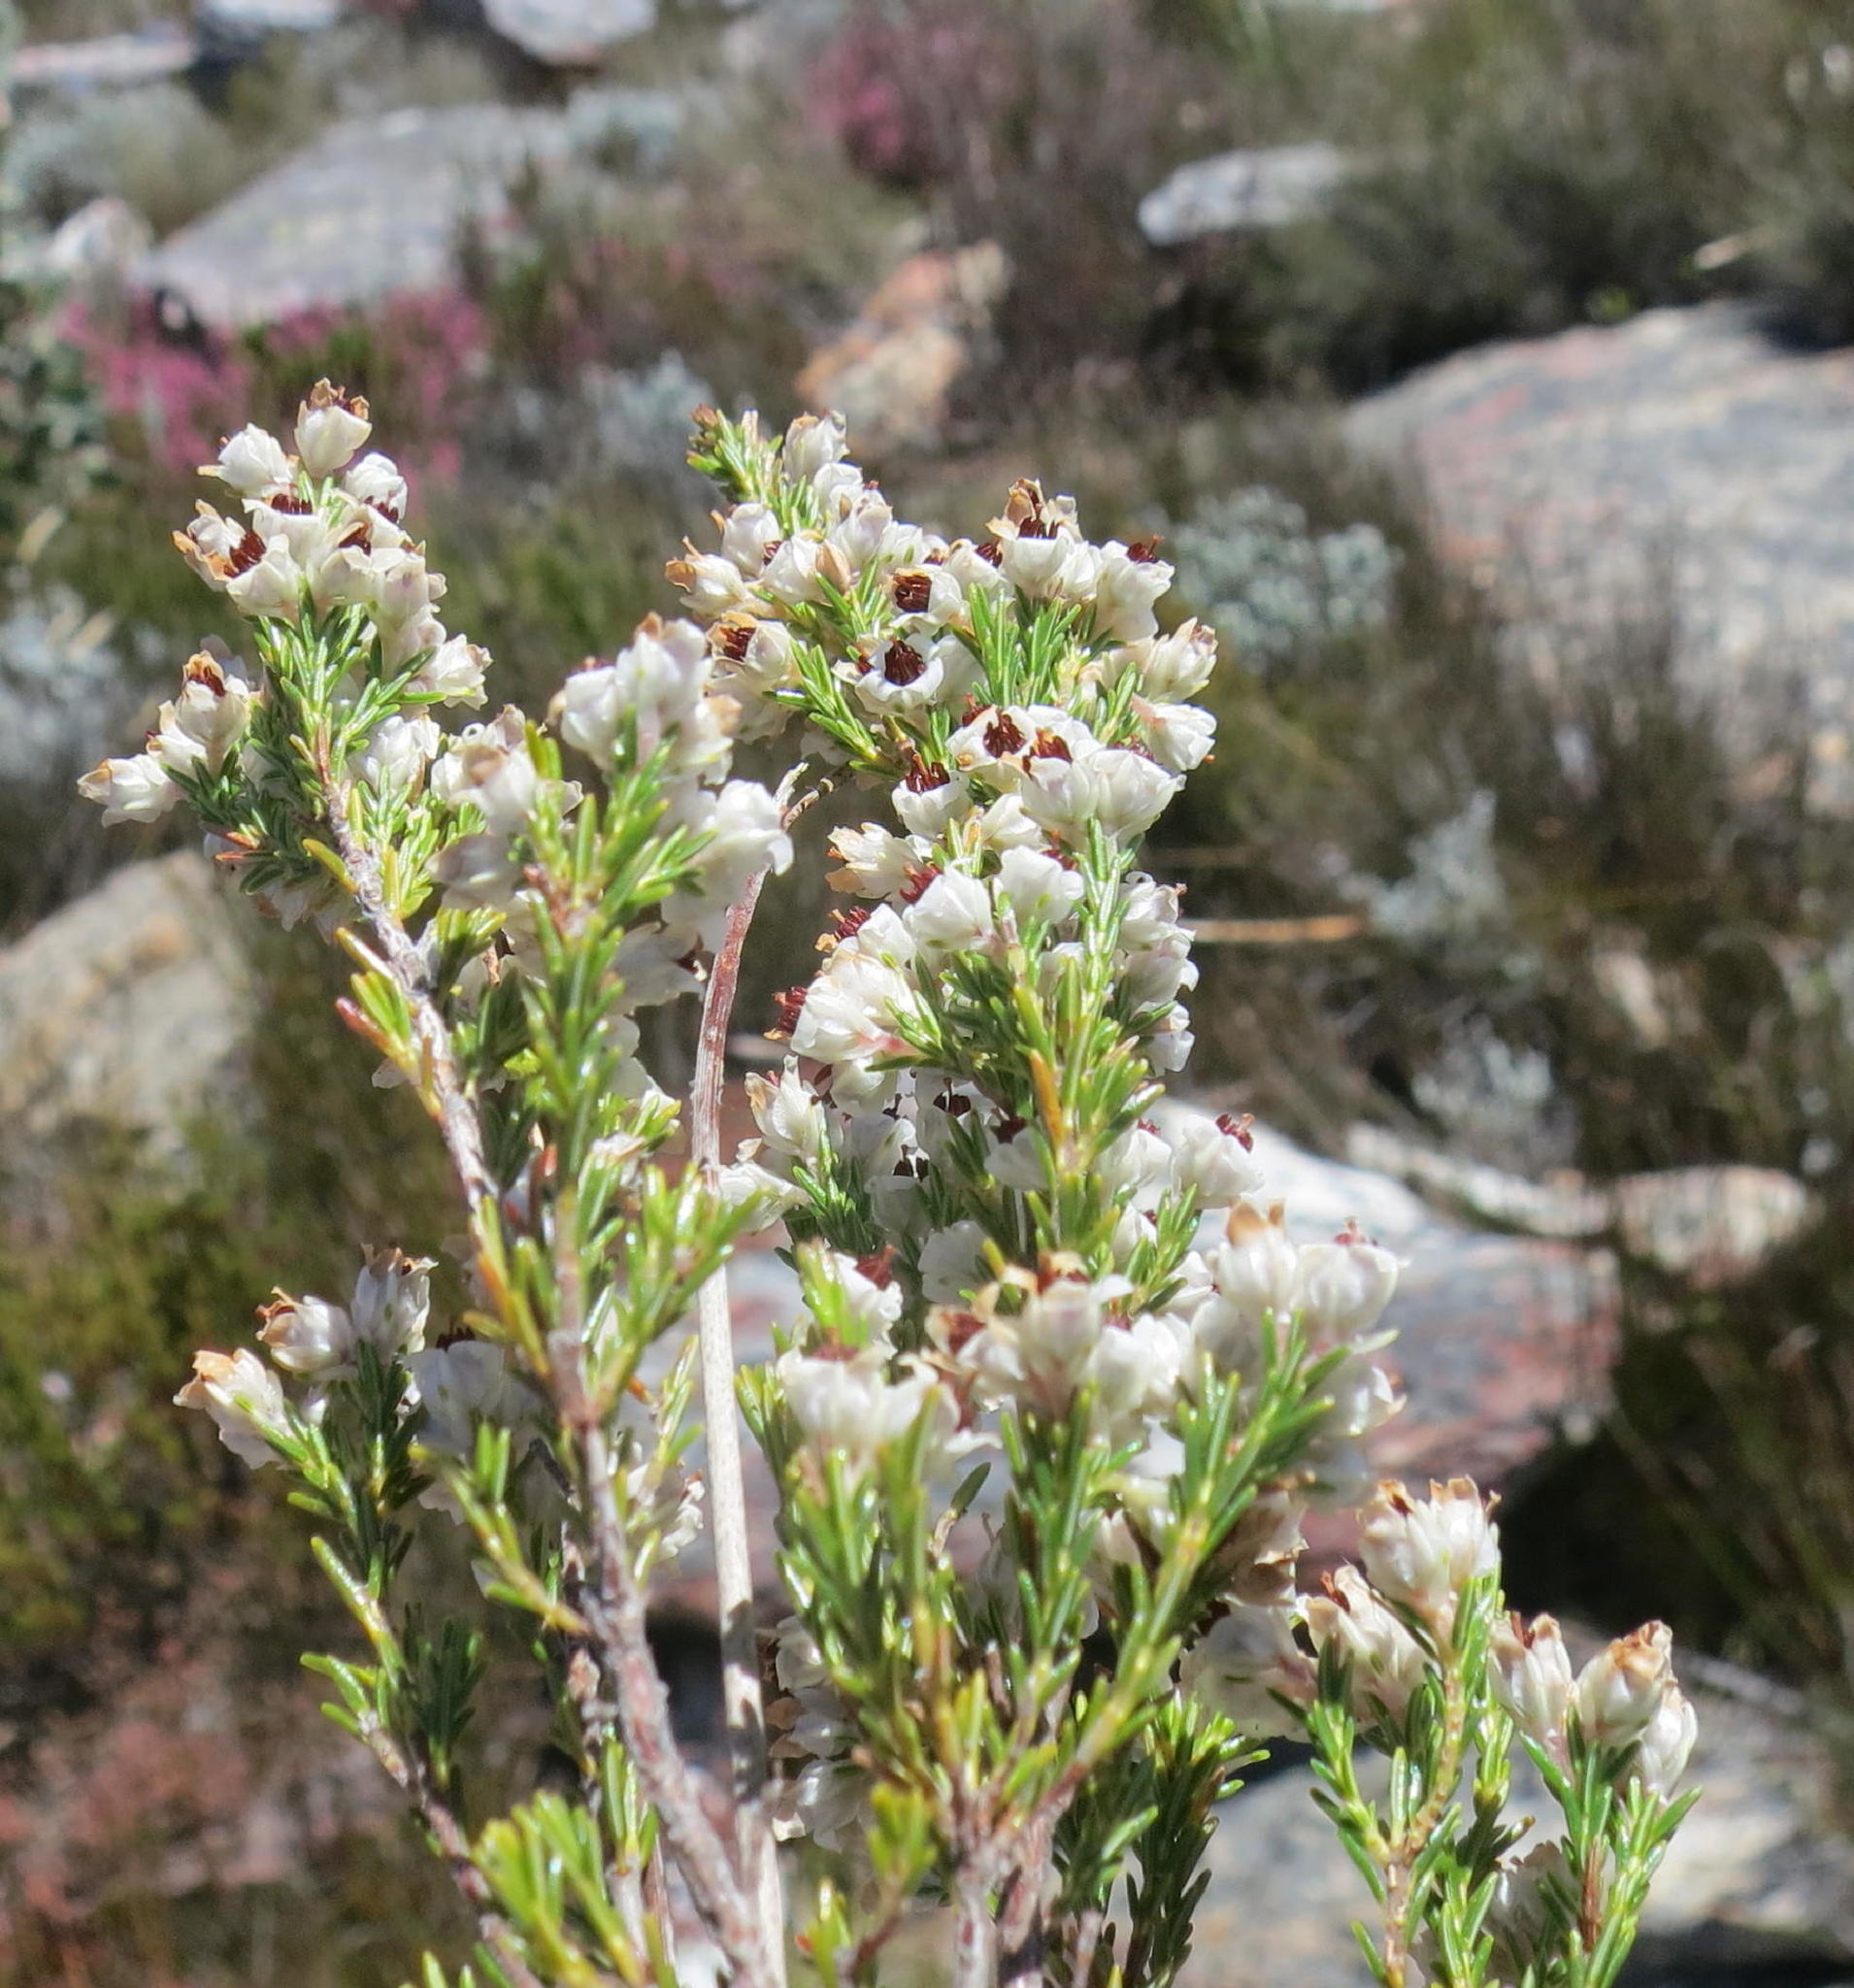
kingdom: Plantae
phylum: Tracheophyta
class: Magnoliopsida
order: Ericales
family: Ericaceae
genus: Erica
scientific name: Erica zwartbergensis
